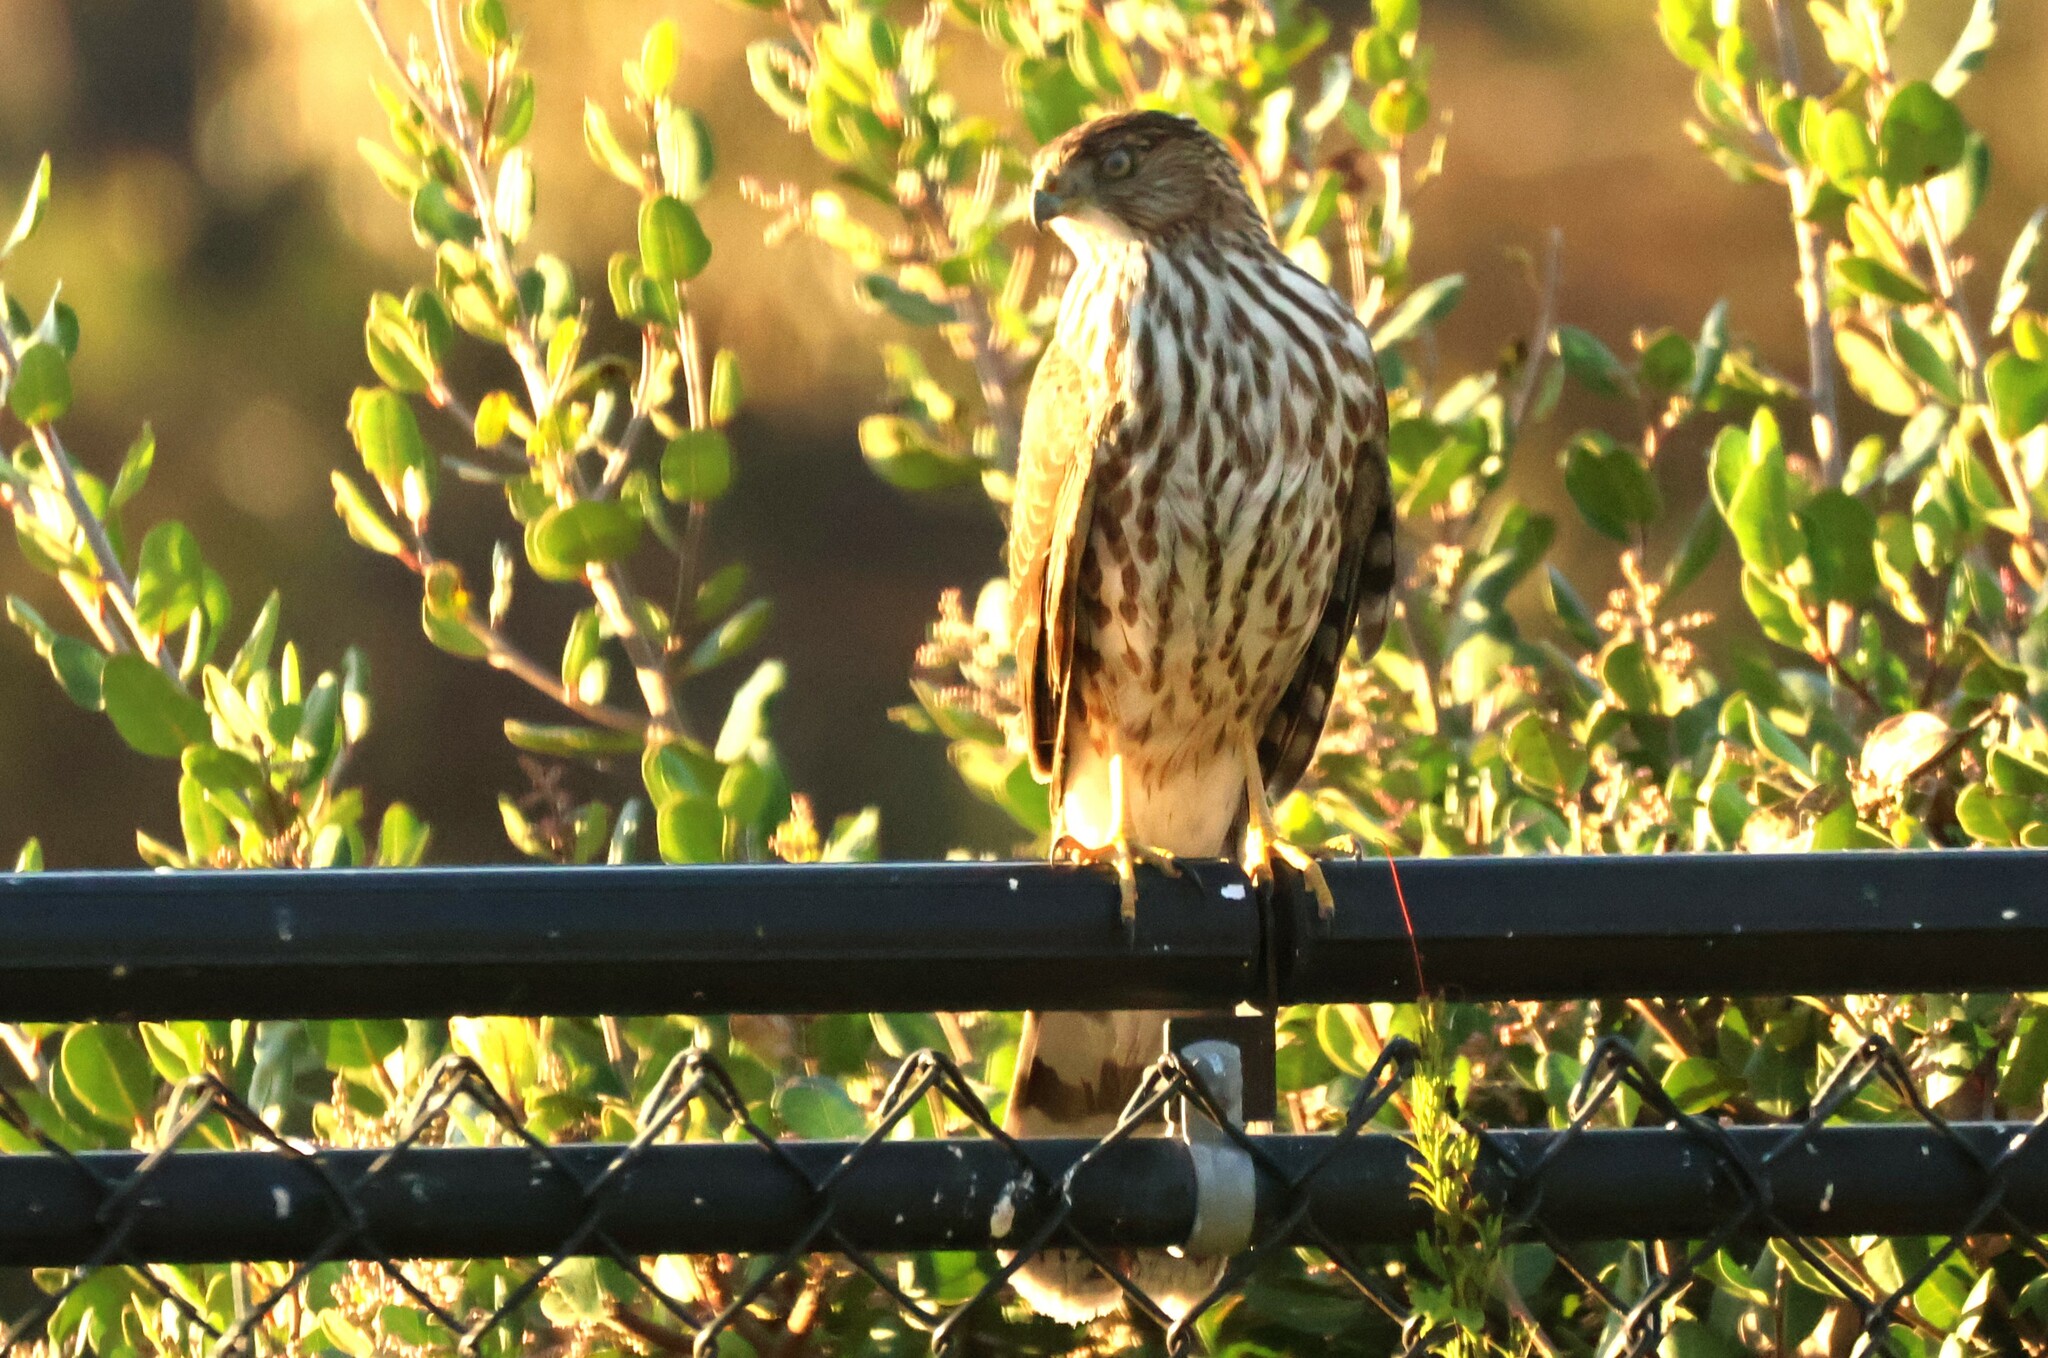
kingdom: Animalia
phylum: Chordata
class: Aves
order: Accipitriformes
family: Accipitridae
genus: Accipiter
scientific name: Accipiter cooperii
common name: Cooper's hawk
